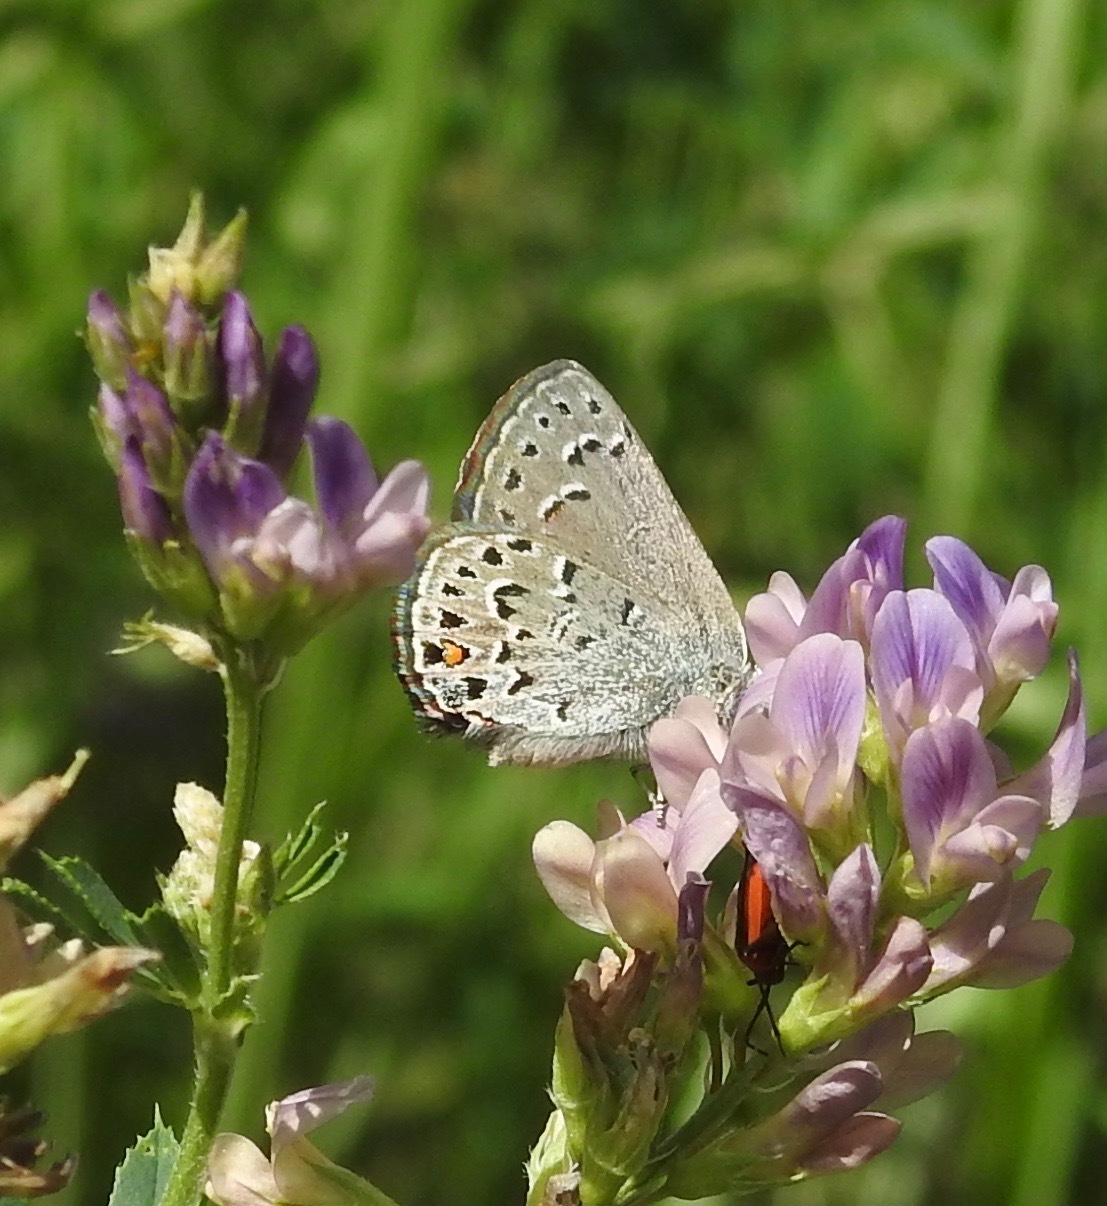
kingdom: Animalia
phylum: Arthropoda
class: Insecta
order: Lepidoptera
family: Lycaenidae
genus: Satyrium
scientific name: Satyrium behrii
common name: Behr's hairstreak
